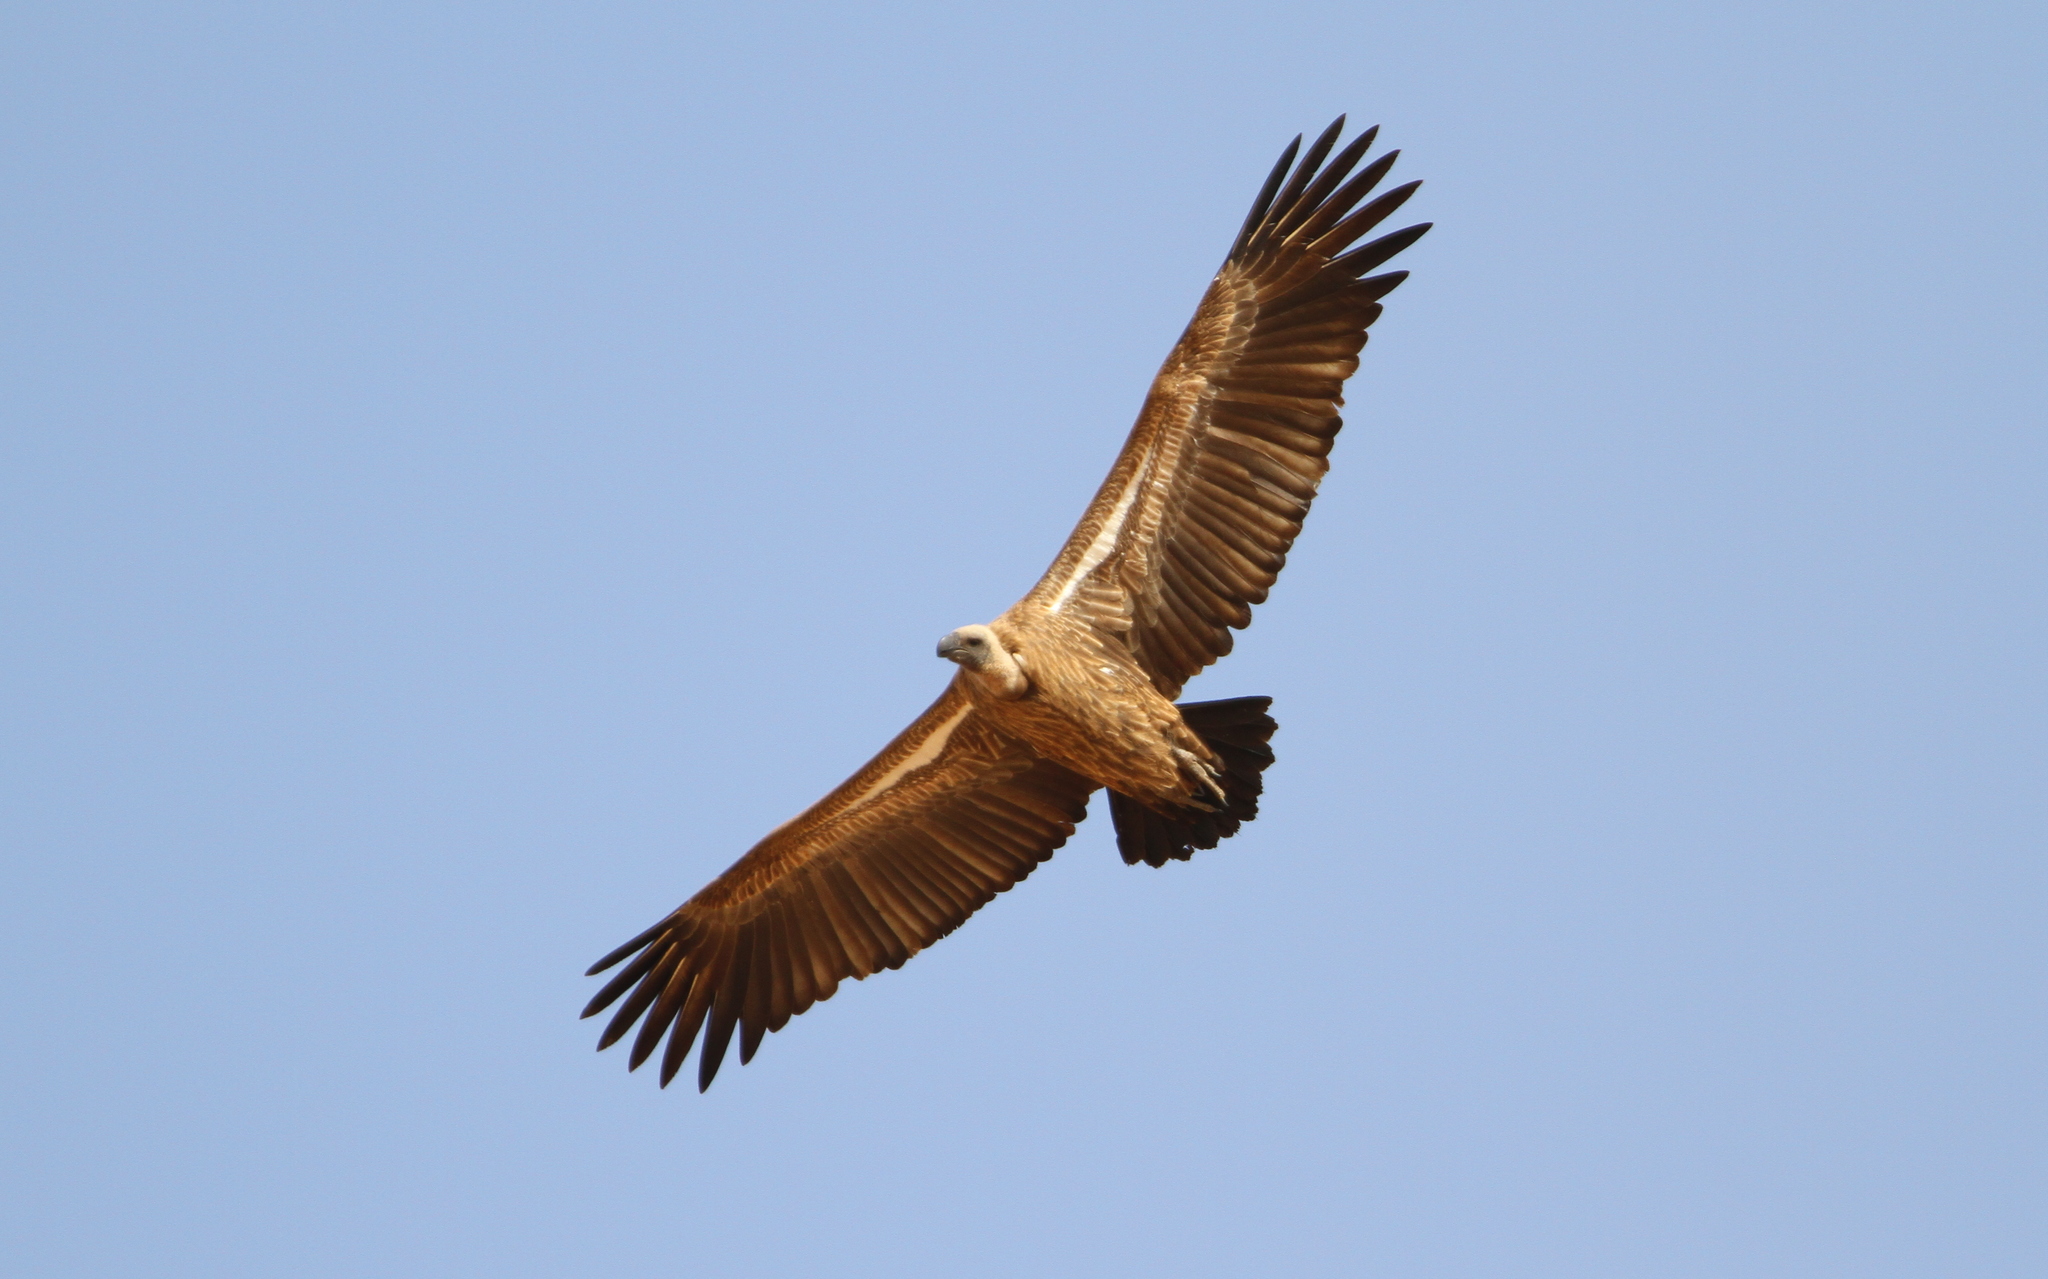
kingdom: Animalia
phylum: Chordata
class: Aves
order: Accipitriformes
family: Accipitridae
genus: Gyps
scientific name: Gyps africanus
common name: White-backed vulture
